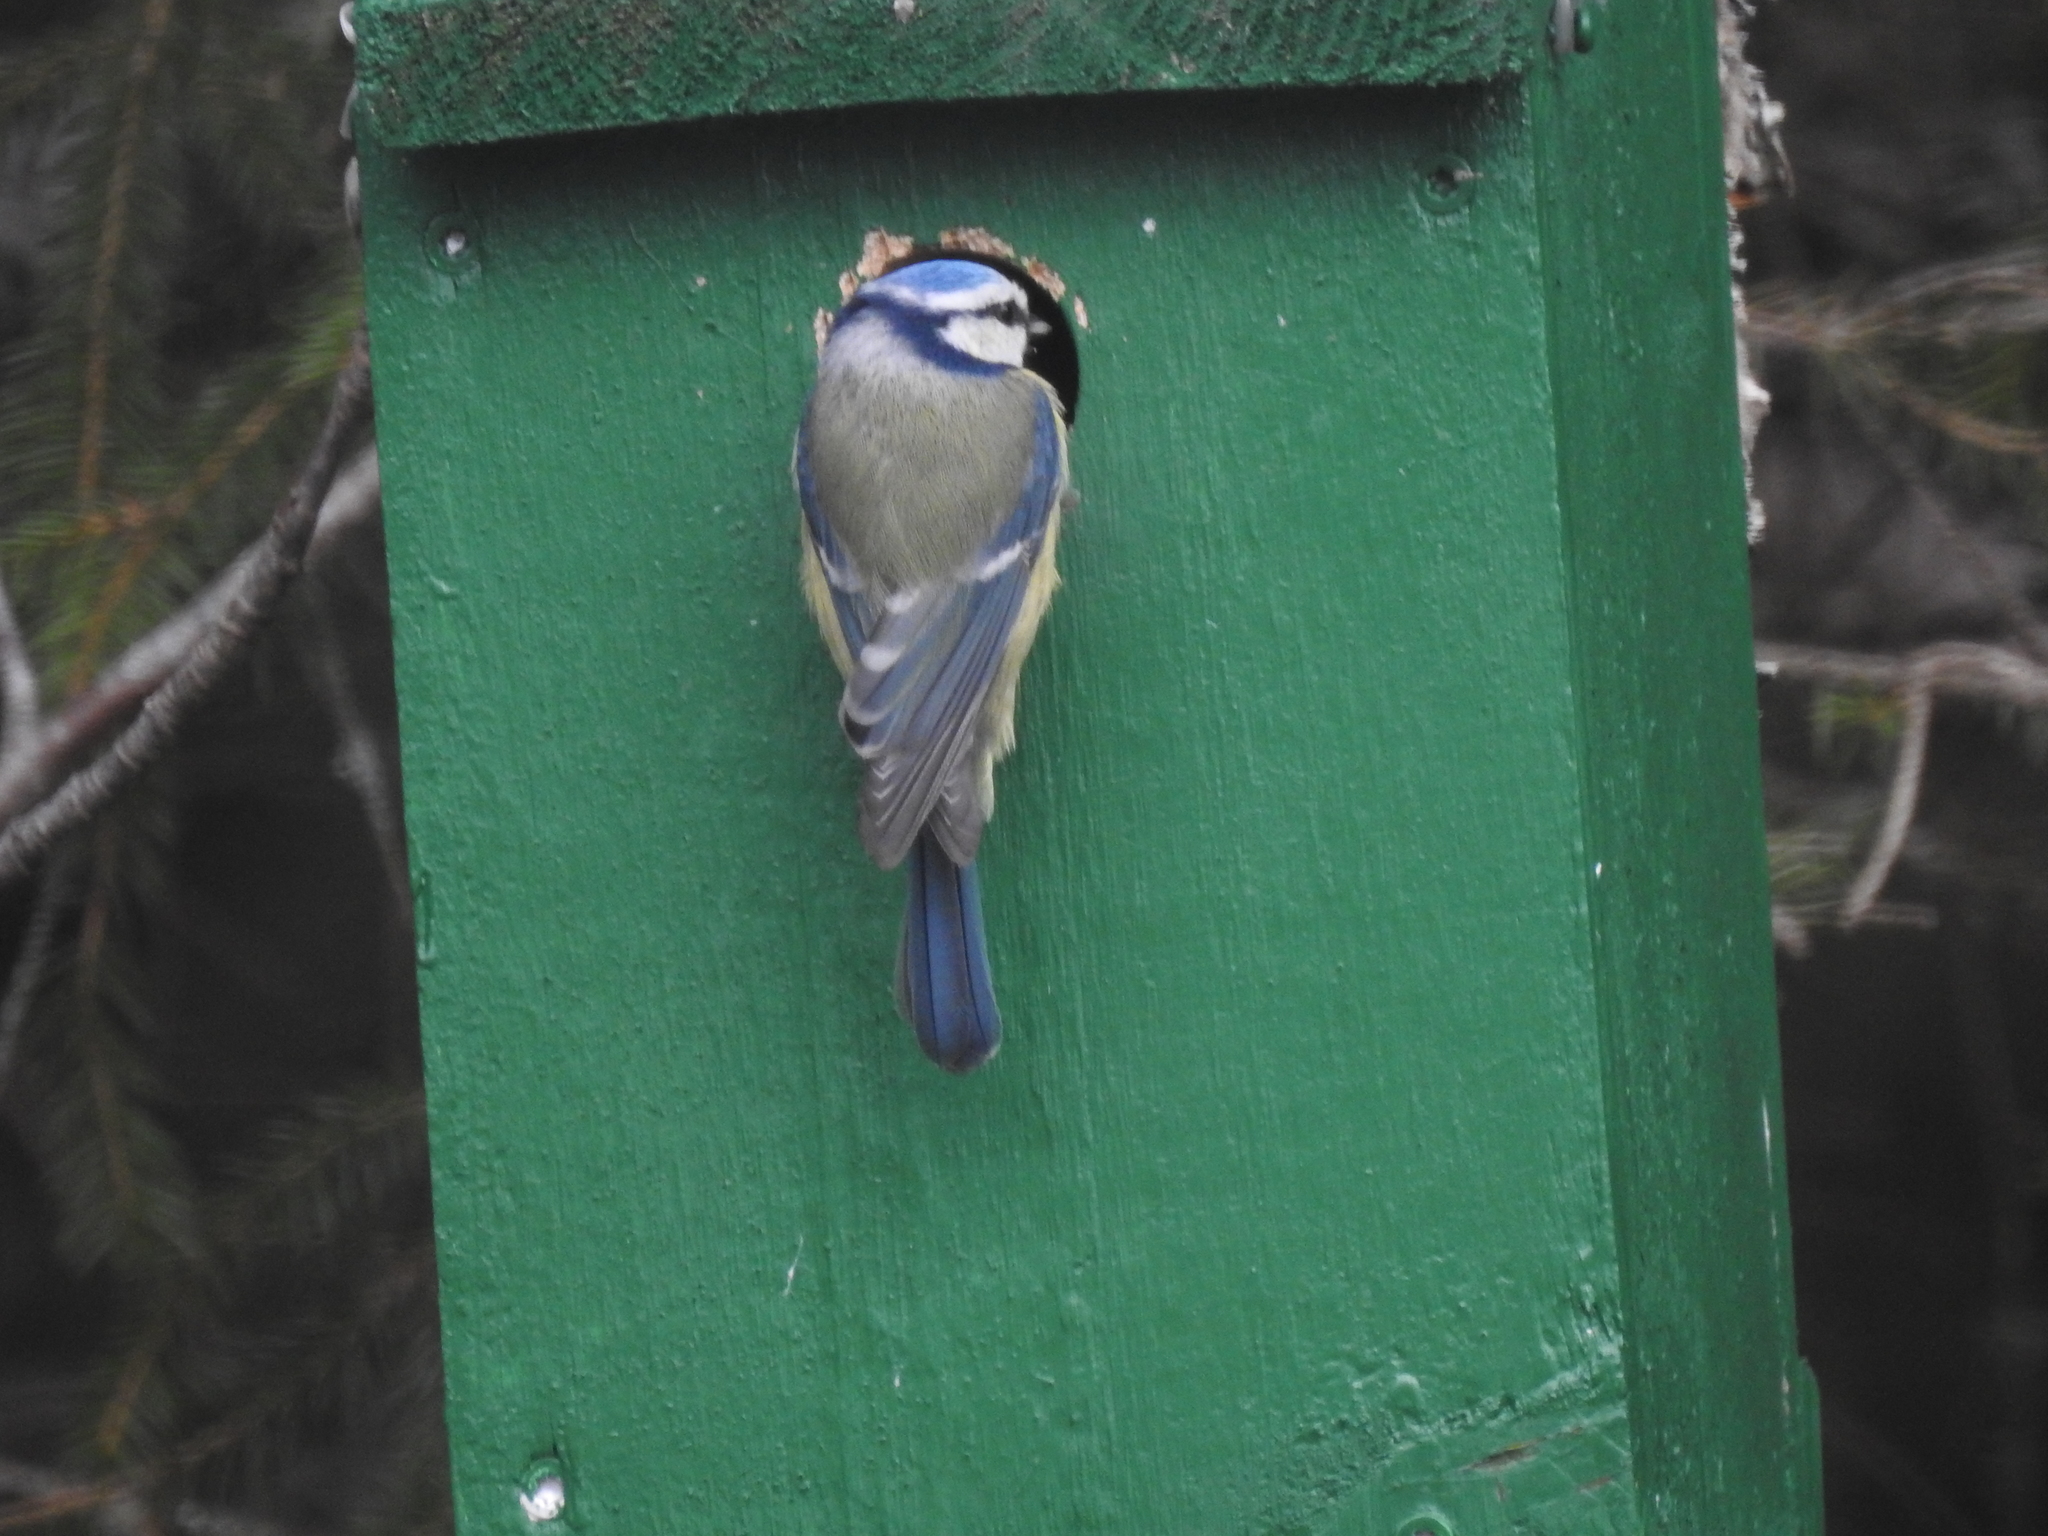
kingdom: Animalia
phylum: Chordata
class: Aves
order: Passeriformes
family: Paridae
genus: Cyanistes
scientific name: Cyanistes caeruleus
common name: Eurasian blue tit
